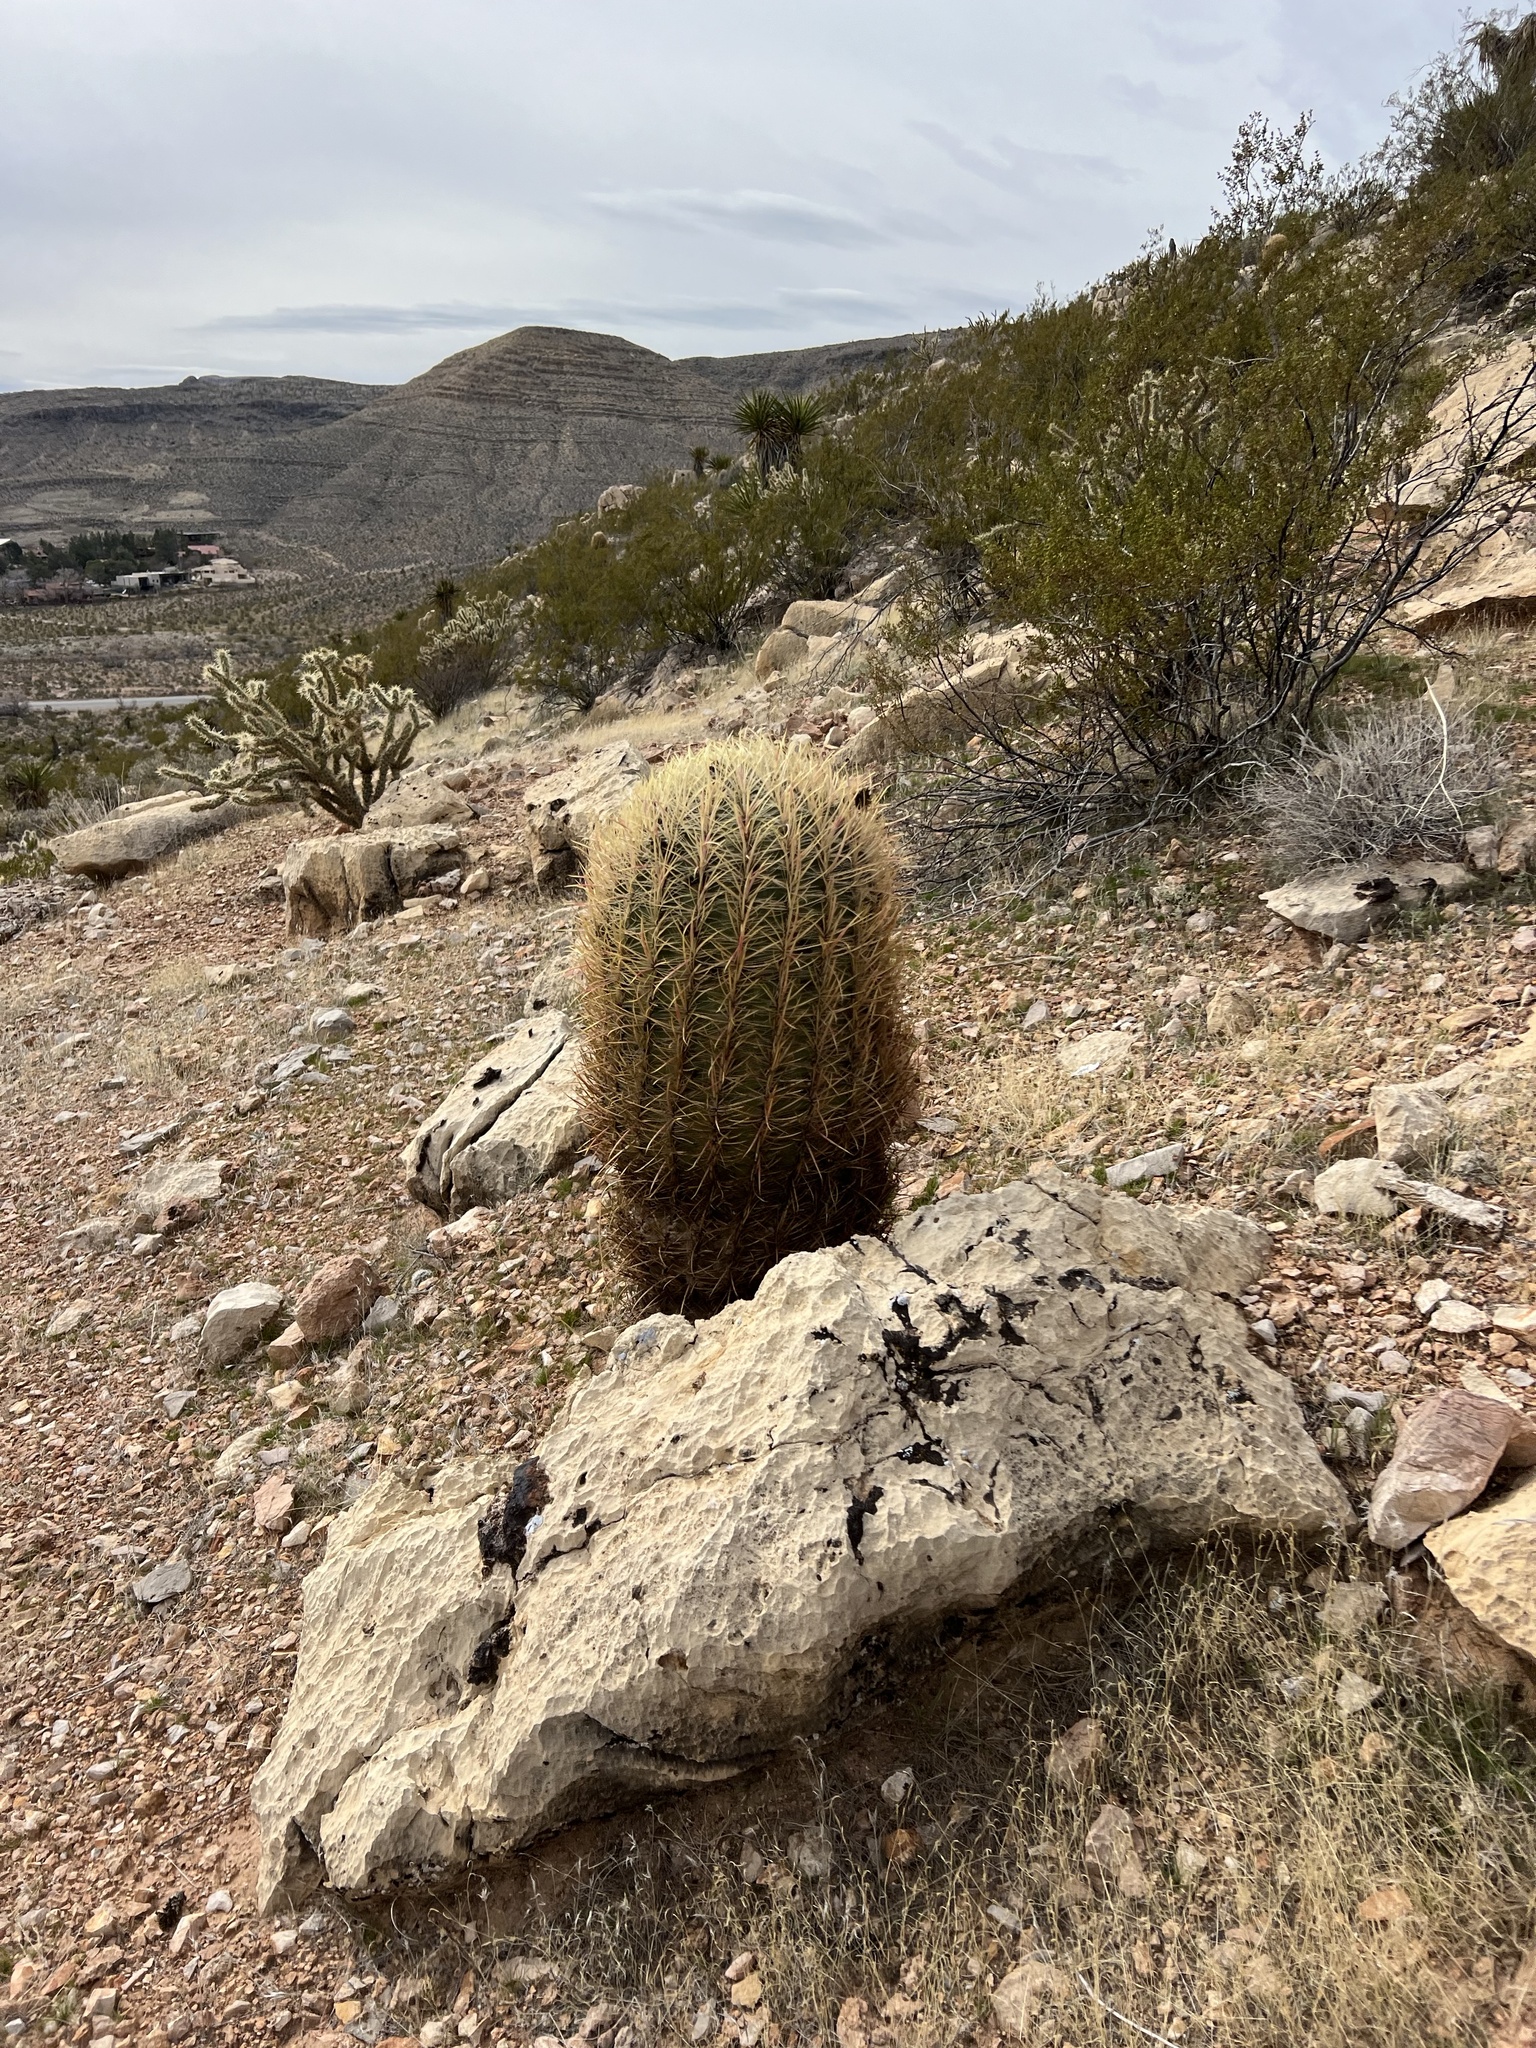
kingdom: Plantae
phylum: Tracheophyta
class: Magnoliopsida
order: Caryophyllales
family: Cactaceae
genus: Ferocactus
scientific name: Ferocactus cylindraceus
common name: California barrel cactus
